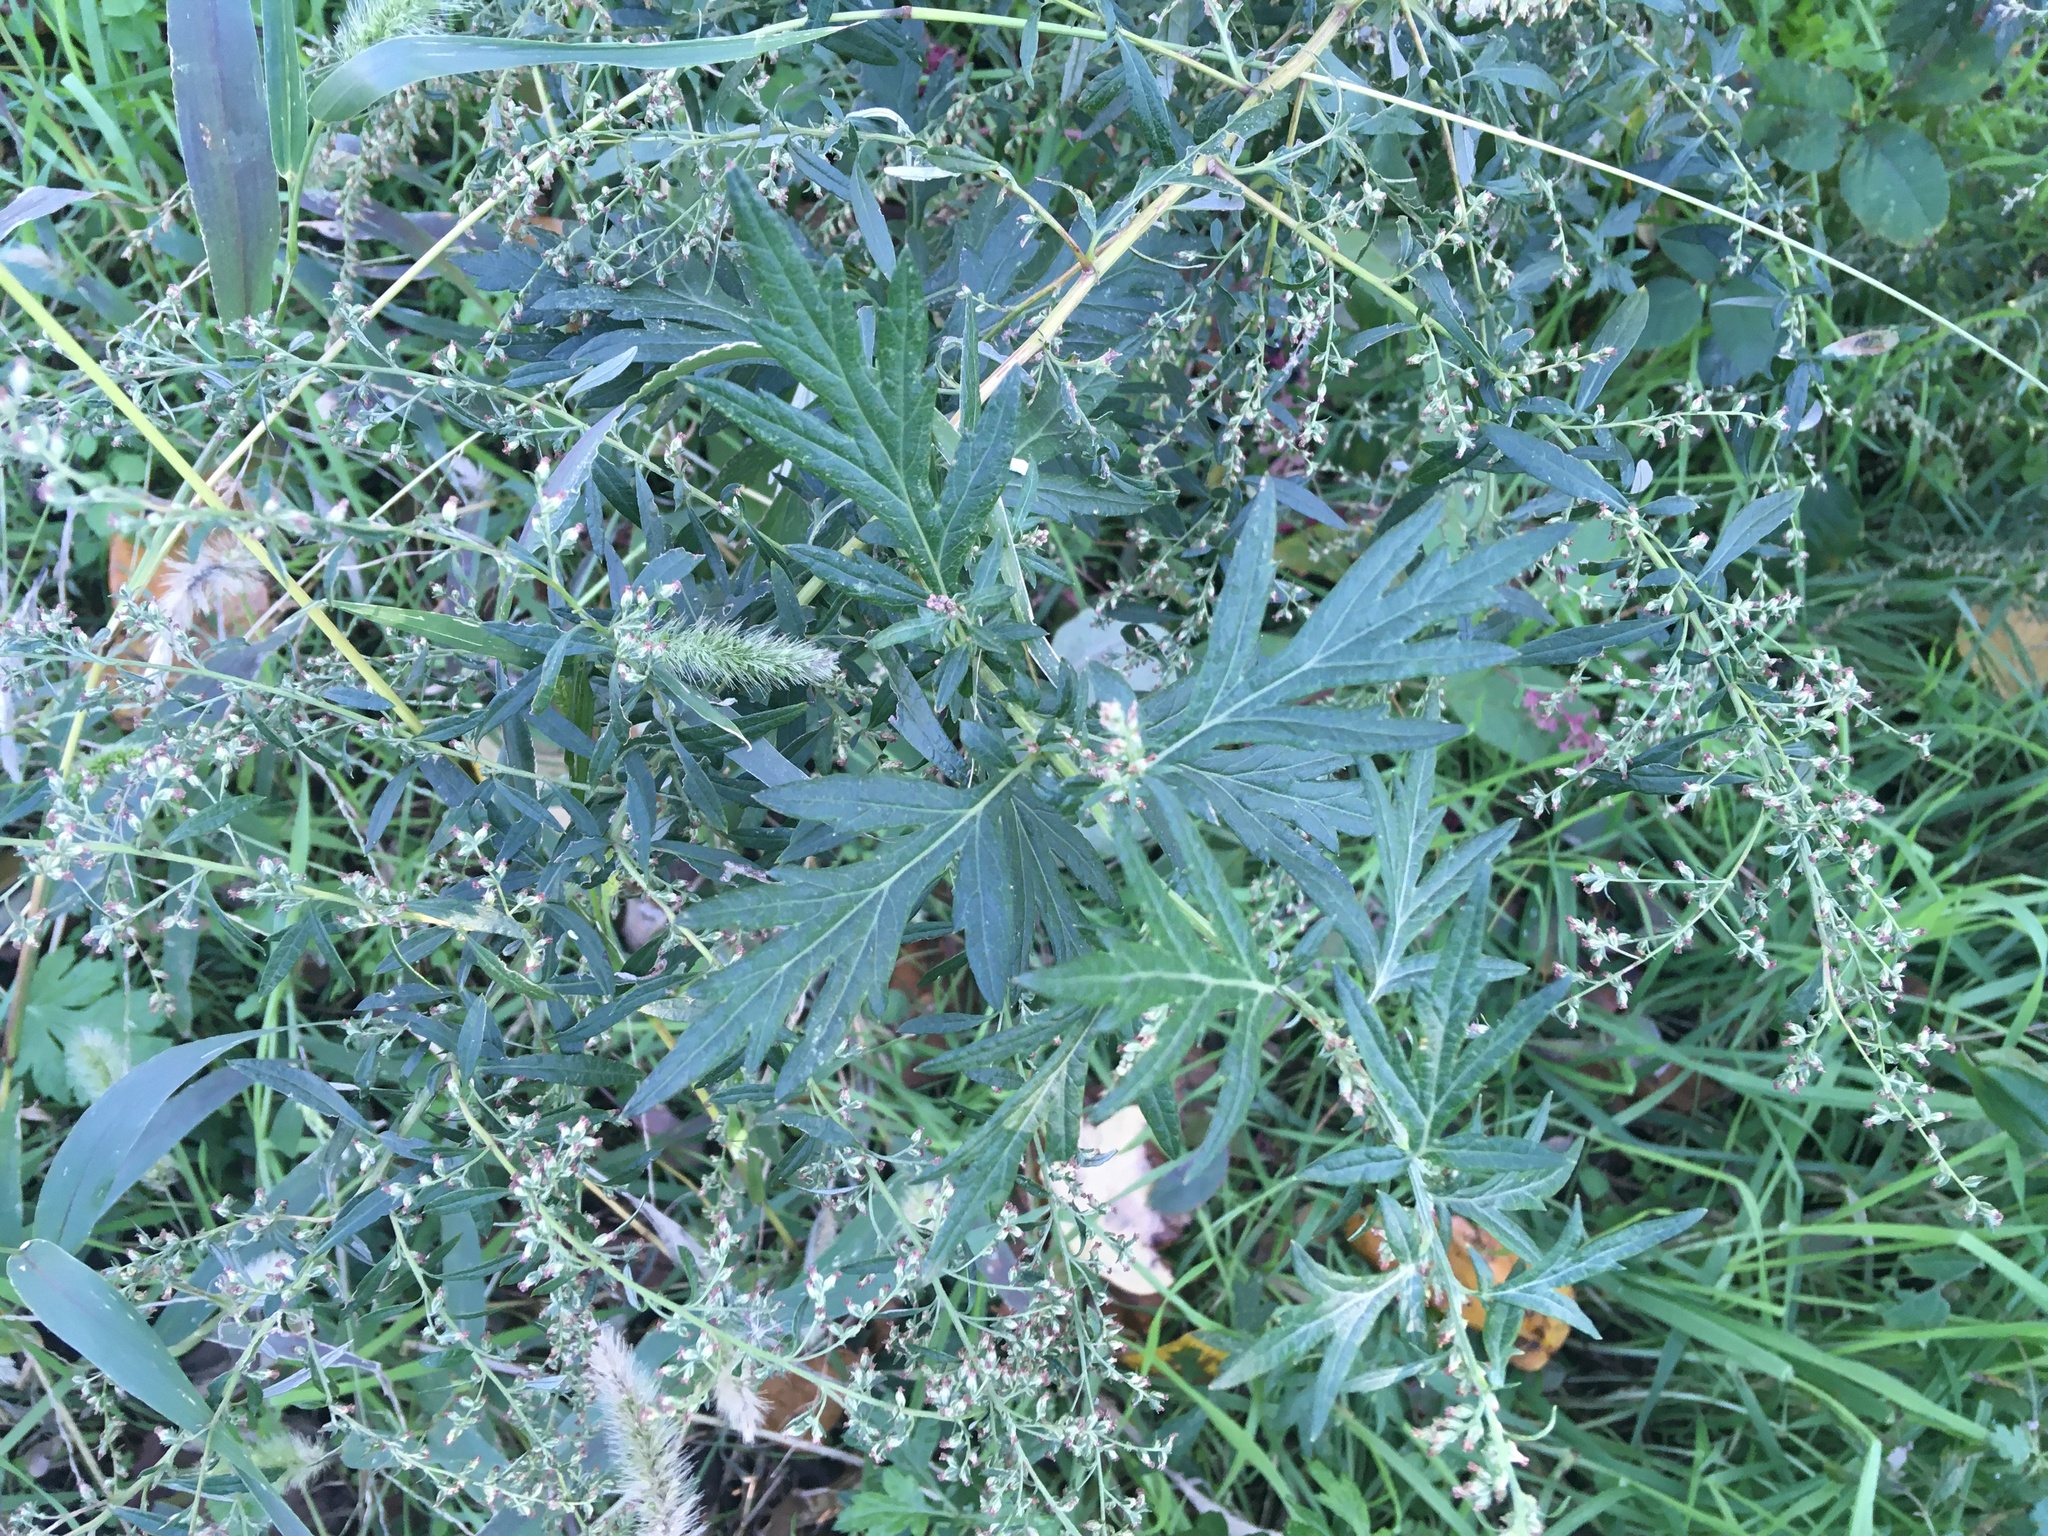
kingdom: Plantae
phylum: Tracheophyta
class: Magnoliopsida
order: Asterales
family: Asteraceae
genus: Artemisia
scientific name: Artemisia vulgaris
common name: Mugwort
